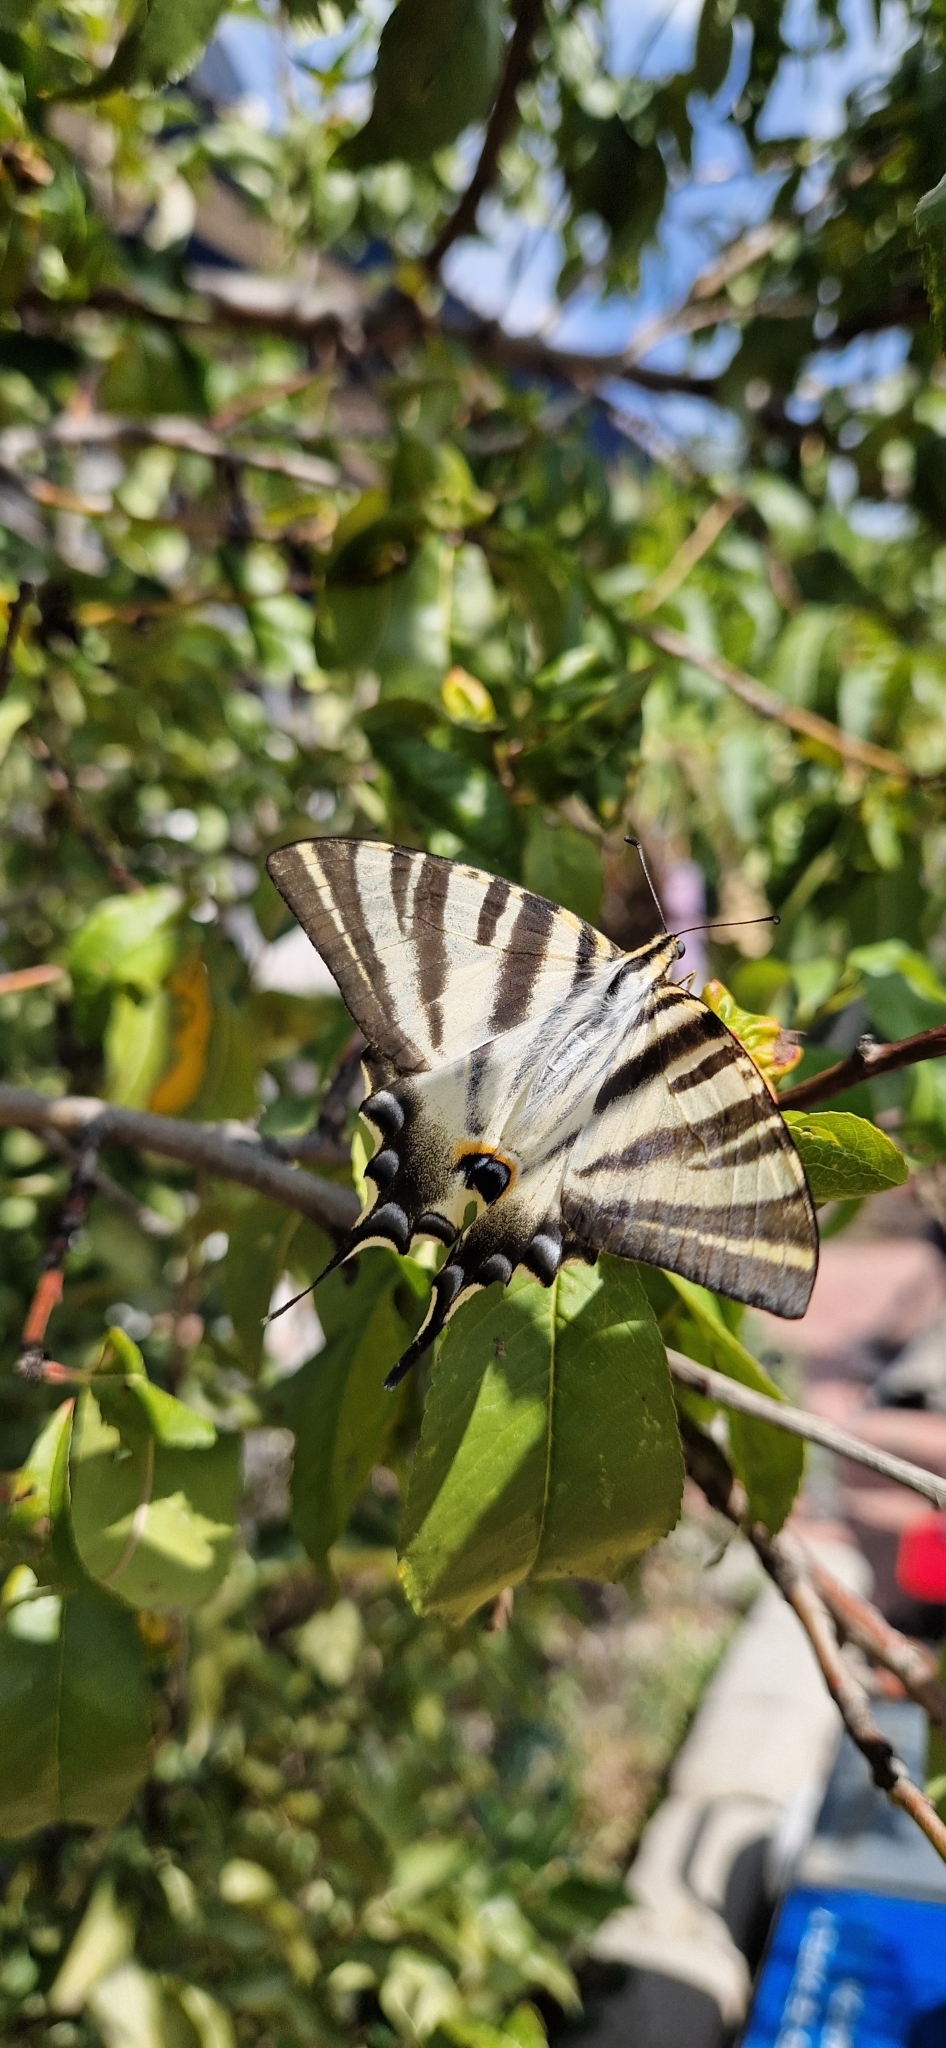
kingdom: Animalia
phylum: Arthropoda
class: Insecta
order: Lepidoptera
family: Papilionidae
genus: Iphiclides
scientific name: Iphiclides feisthamelii
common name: Iberian scarce swallowtail
